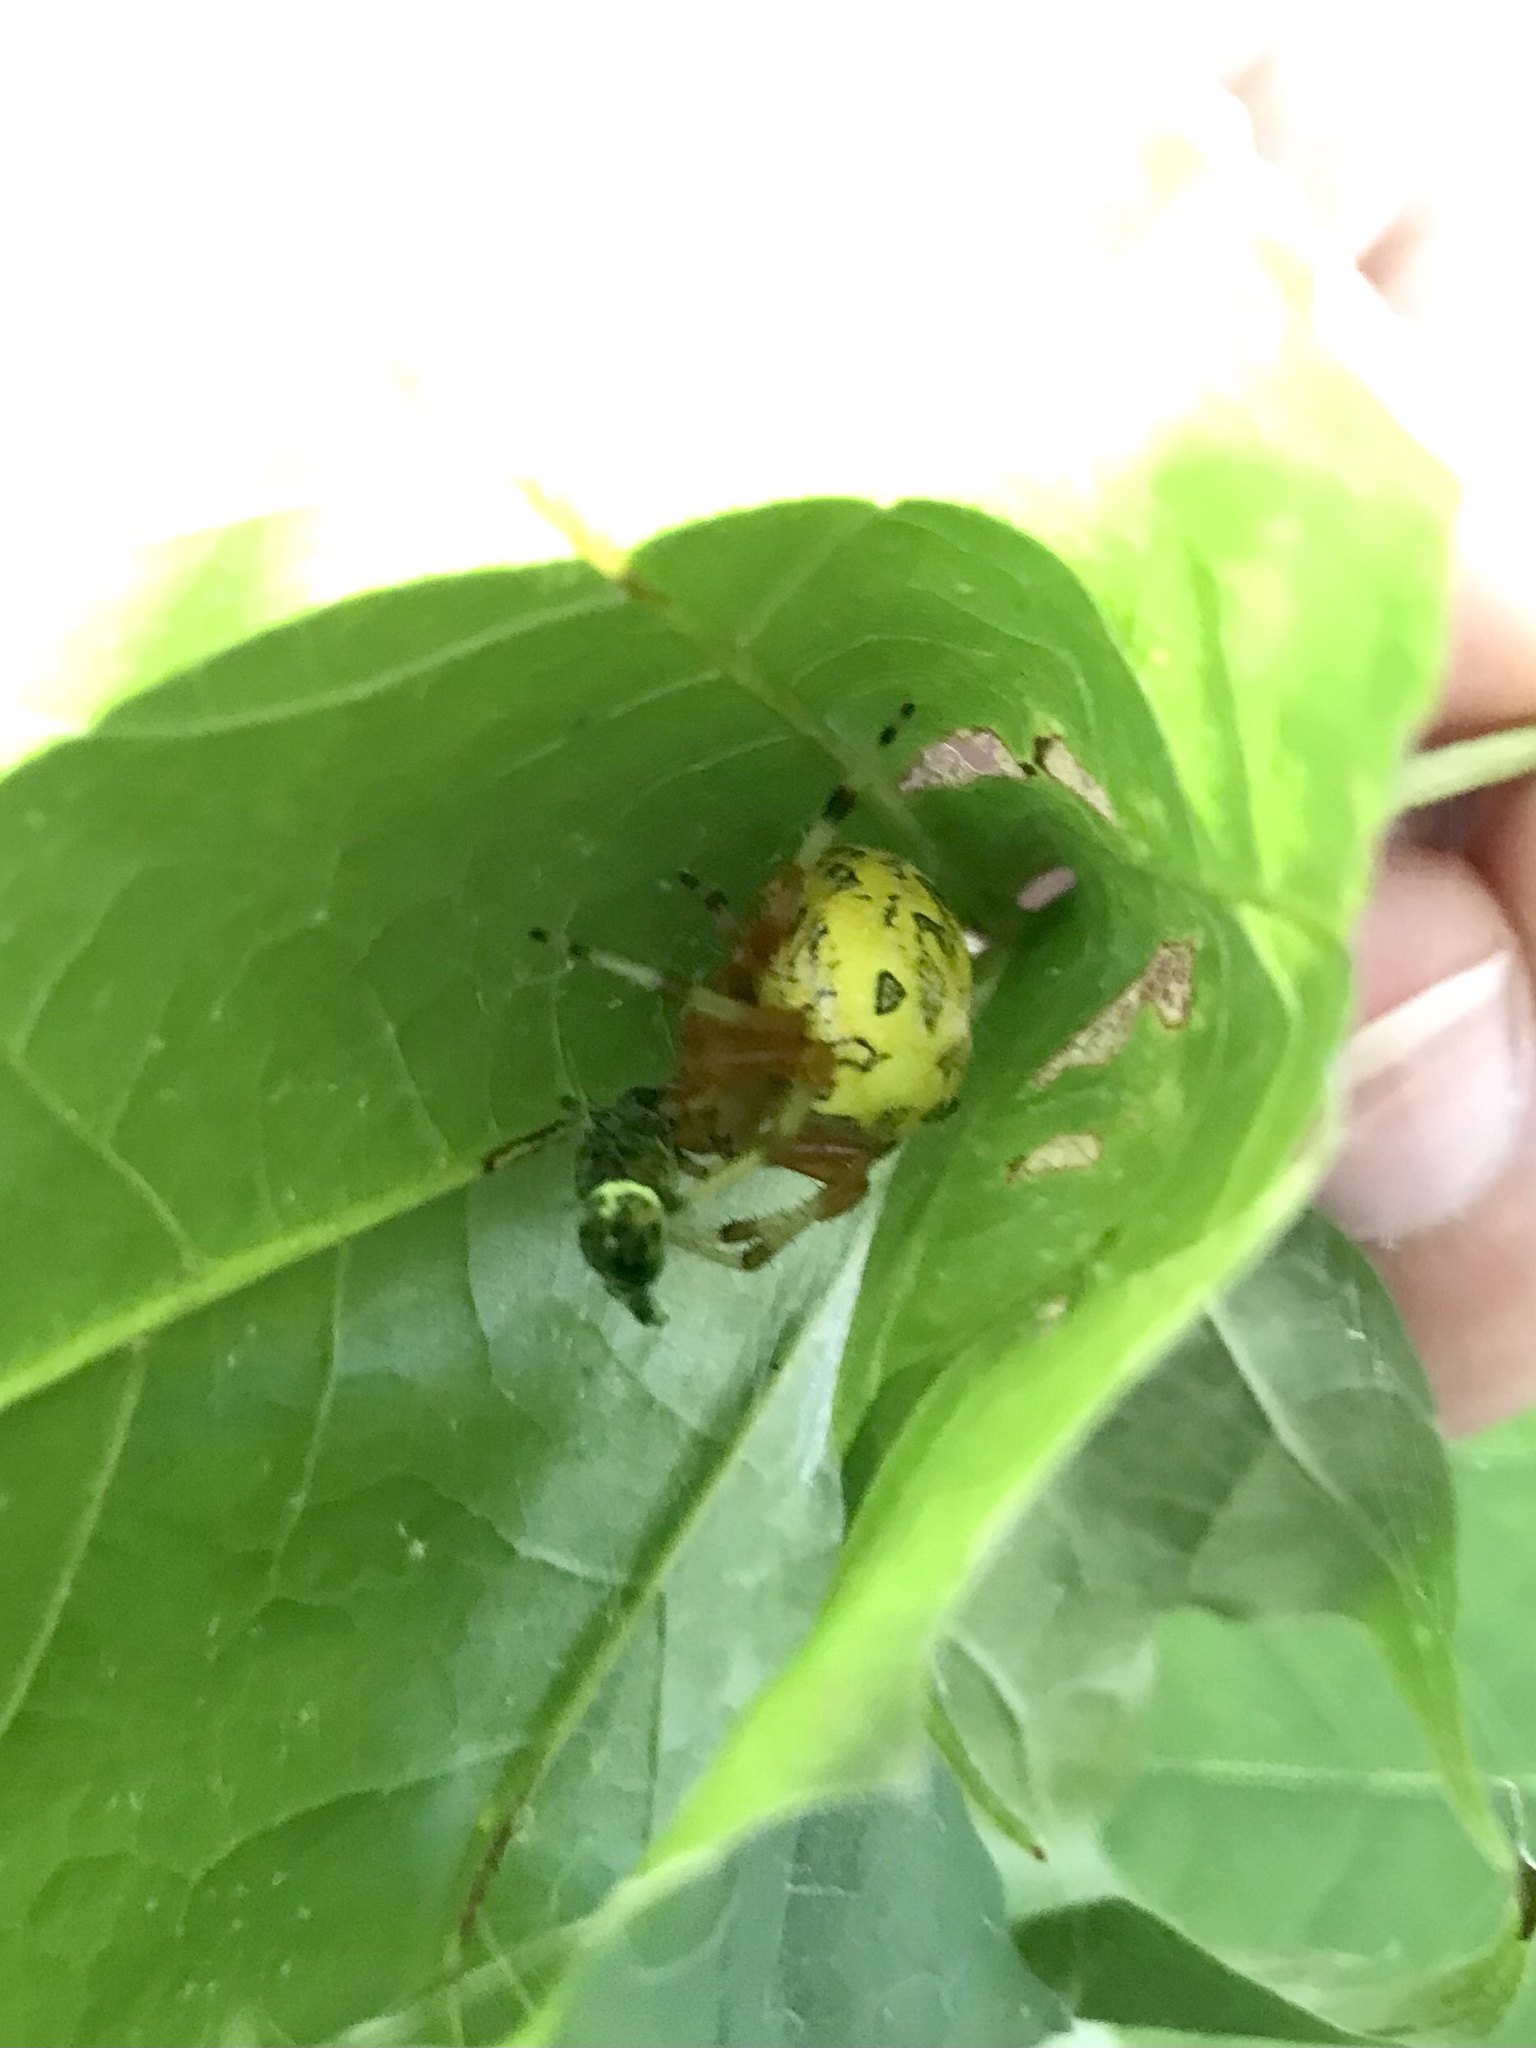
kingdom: Animalia
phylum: Arthropoda
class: Arachnida
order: Araneae
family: Araneidae
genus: Araneus
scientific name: Araneus marmoreus
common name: Marbled orbweaver
